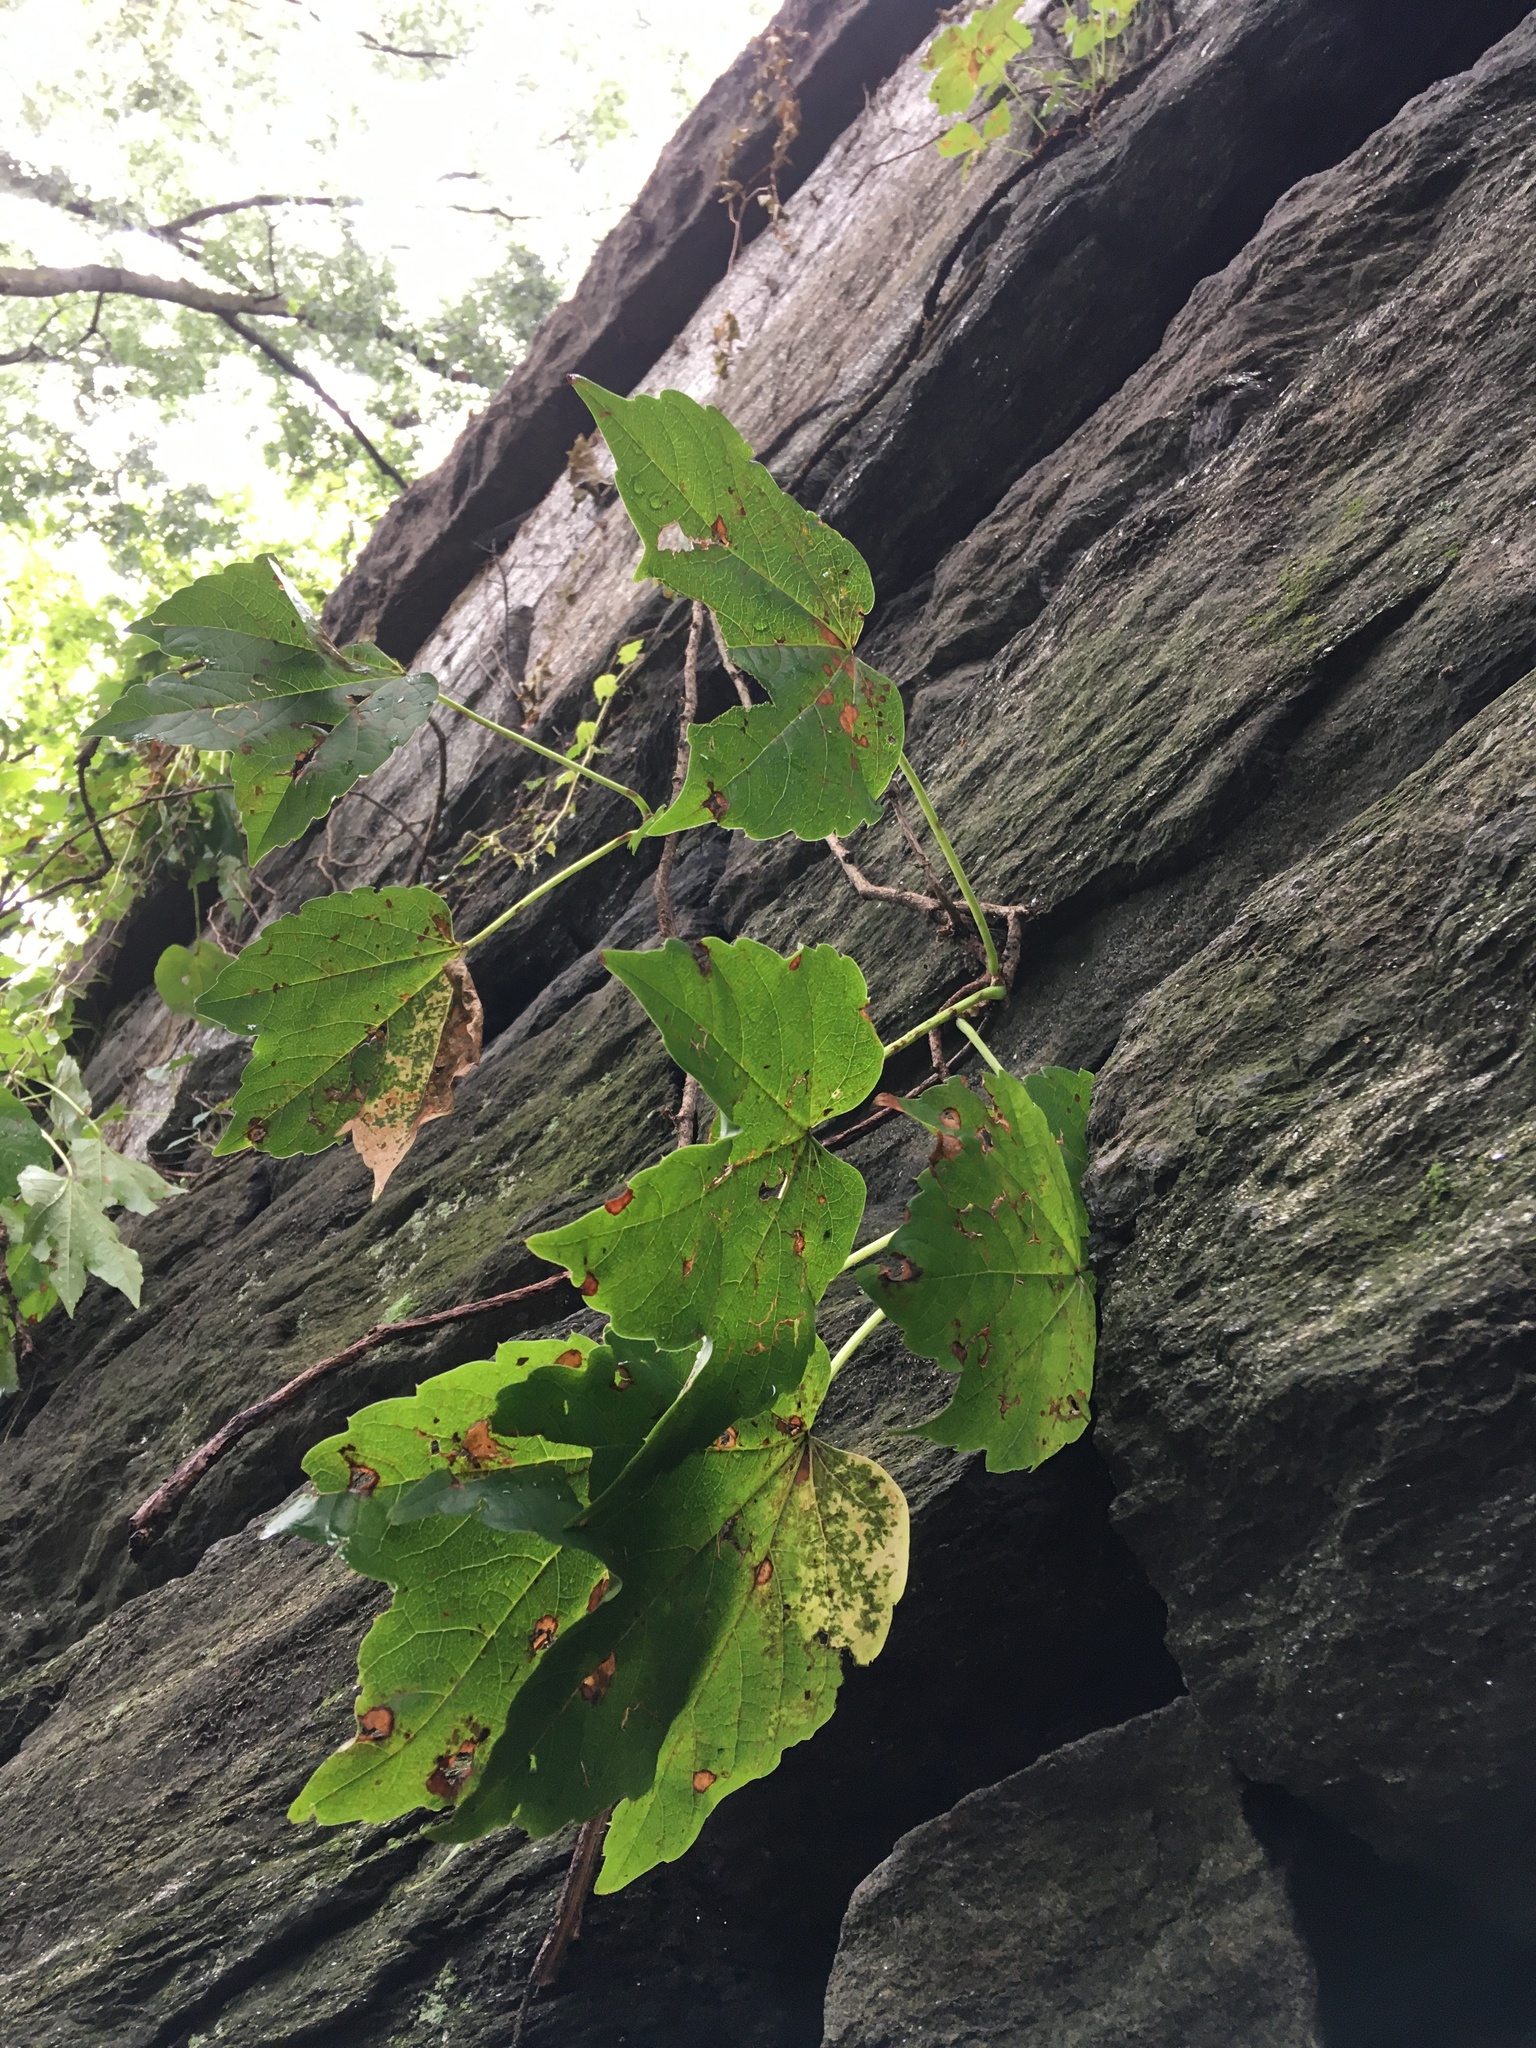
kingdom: Plantae
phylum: Tracheophyta
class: Magnoliopsida
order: Vitales
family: Vitaceae
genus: Parthenocissus
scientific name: Parthenocissus tricuspidata
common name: Boston ivy
